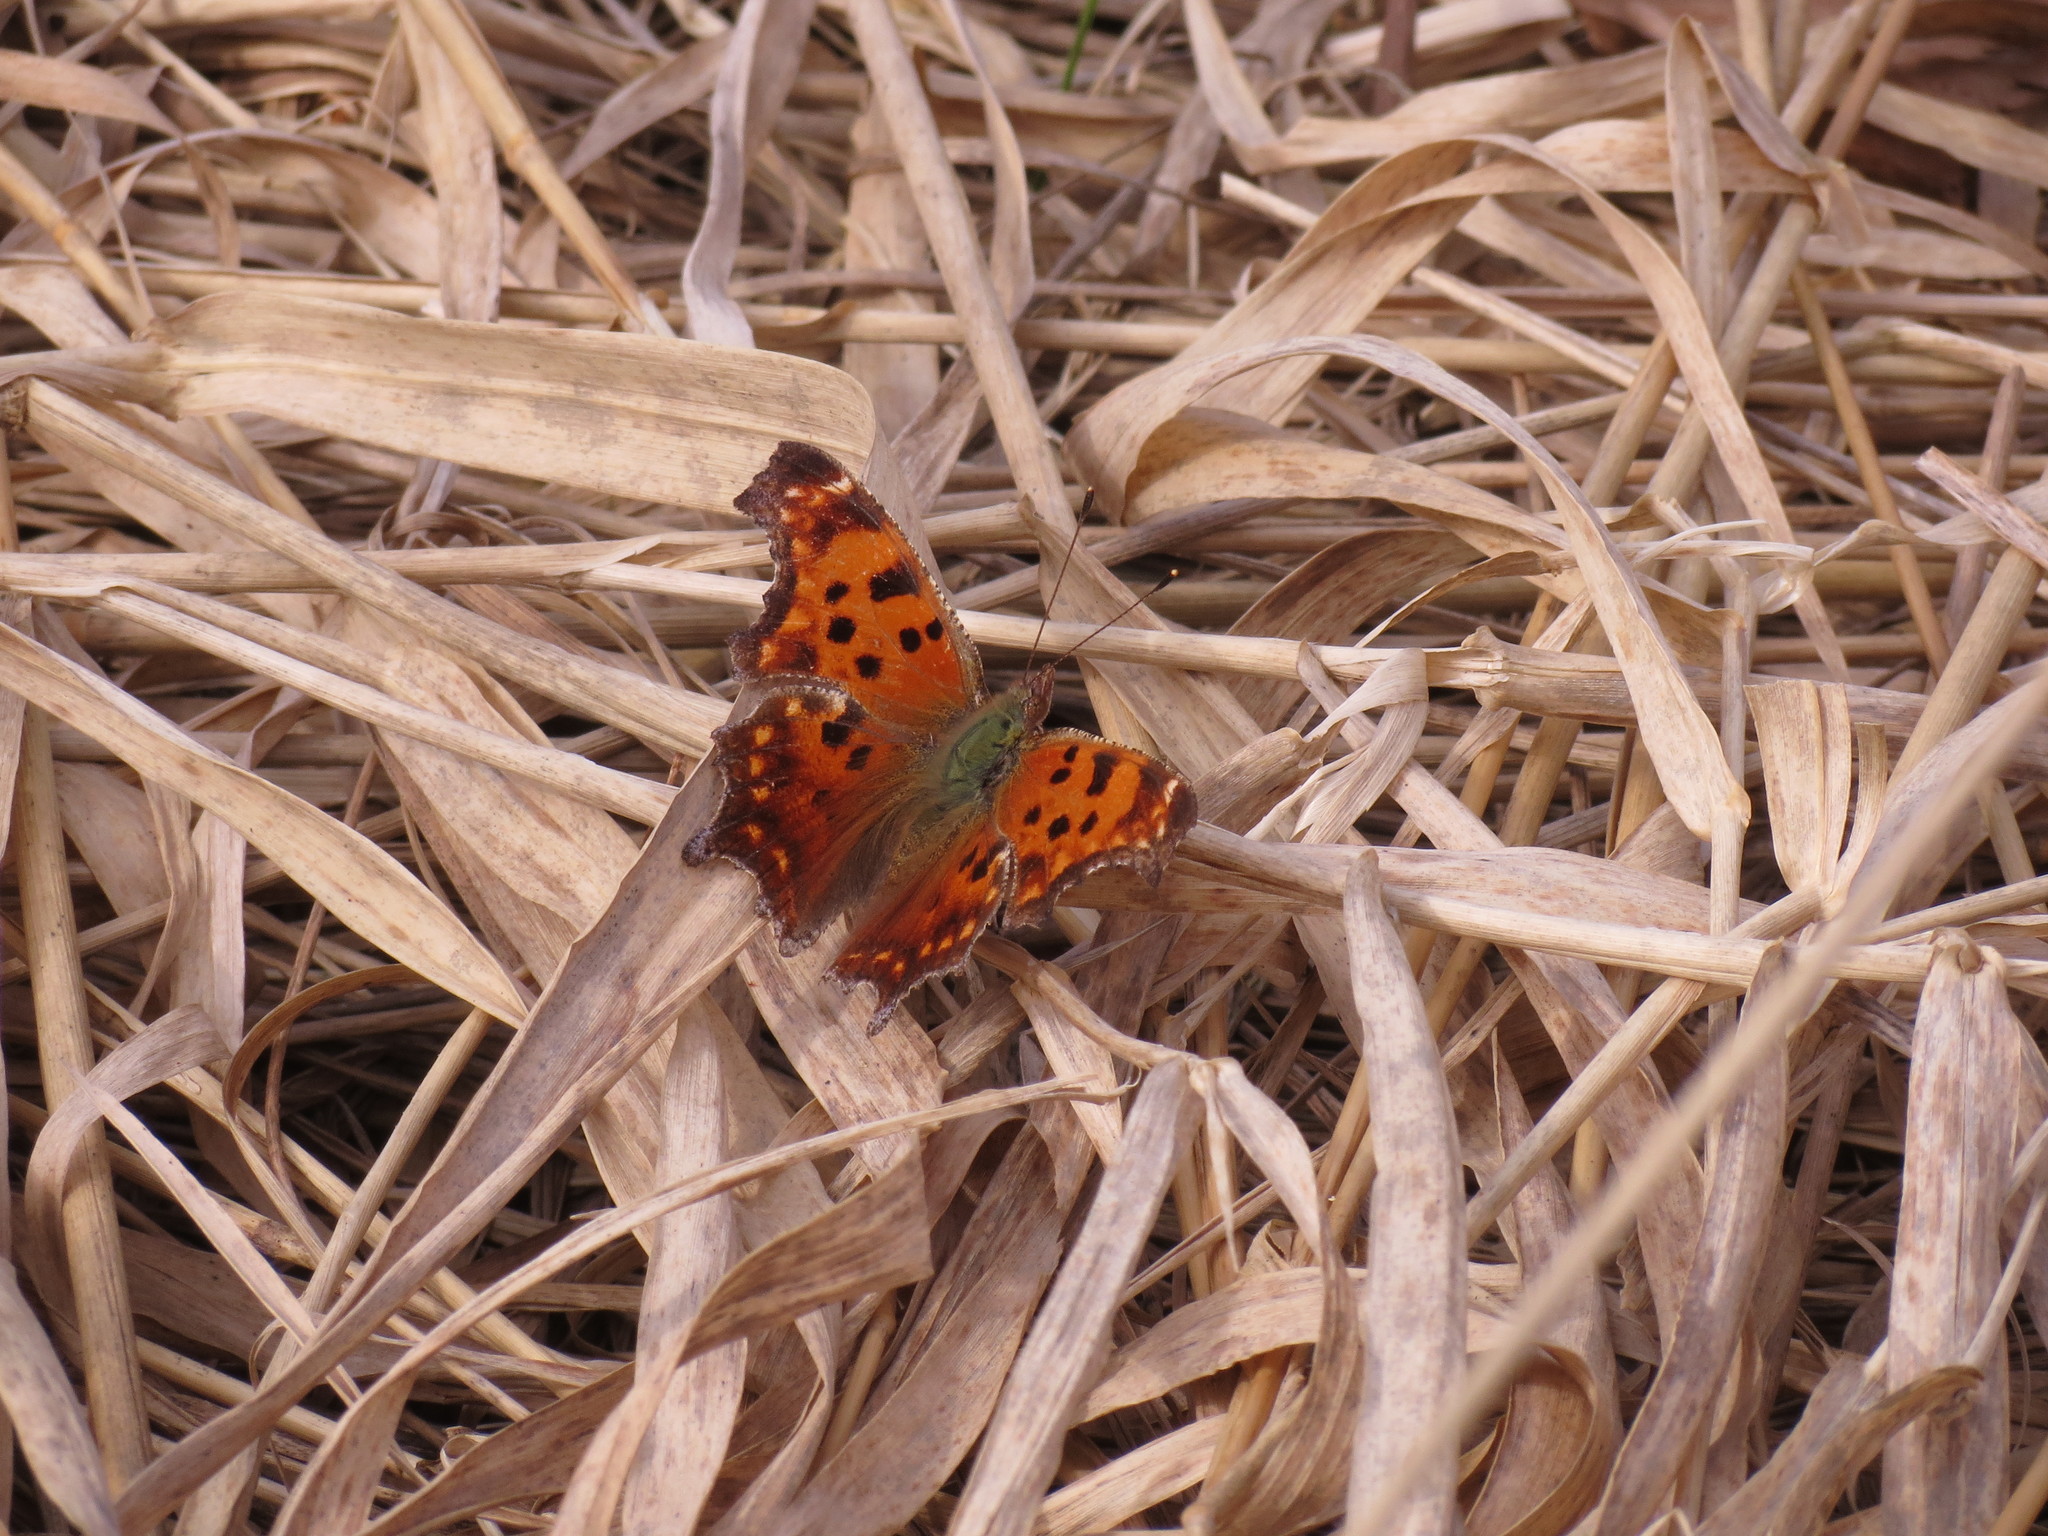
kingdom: Animalia
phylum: Arthropoda
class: Insecta
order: Lepidoptera
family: Nymphalidae
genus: Polygonia
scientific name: Polygonia comma
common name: Eastern comma
